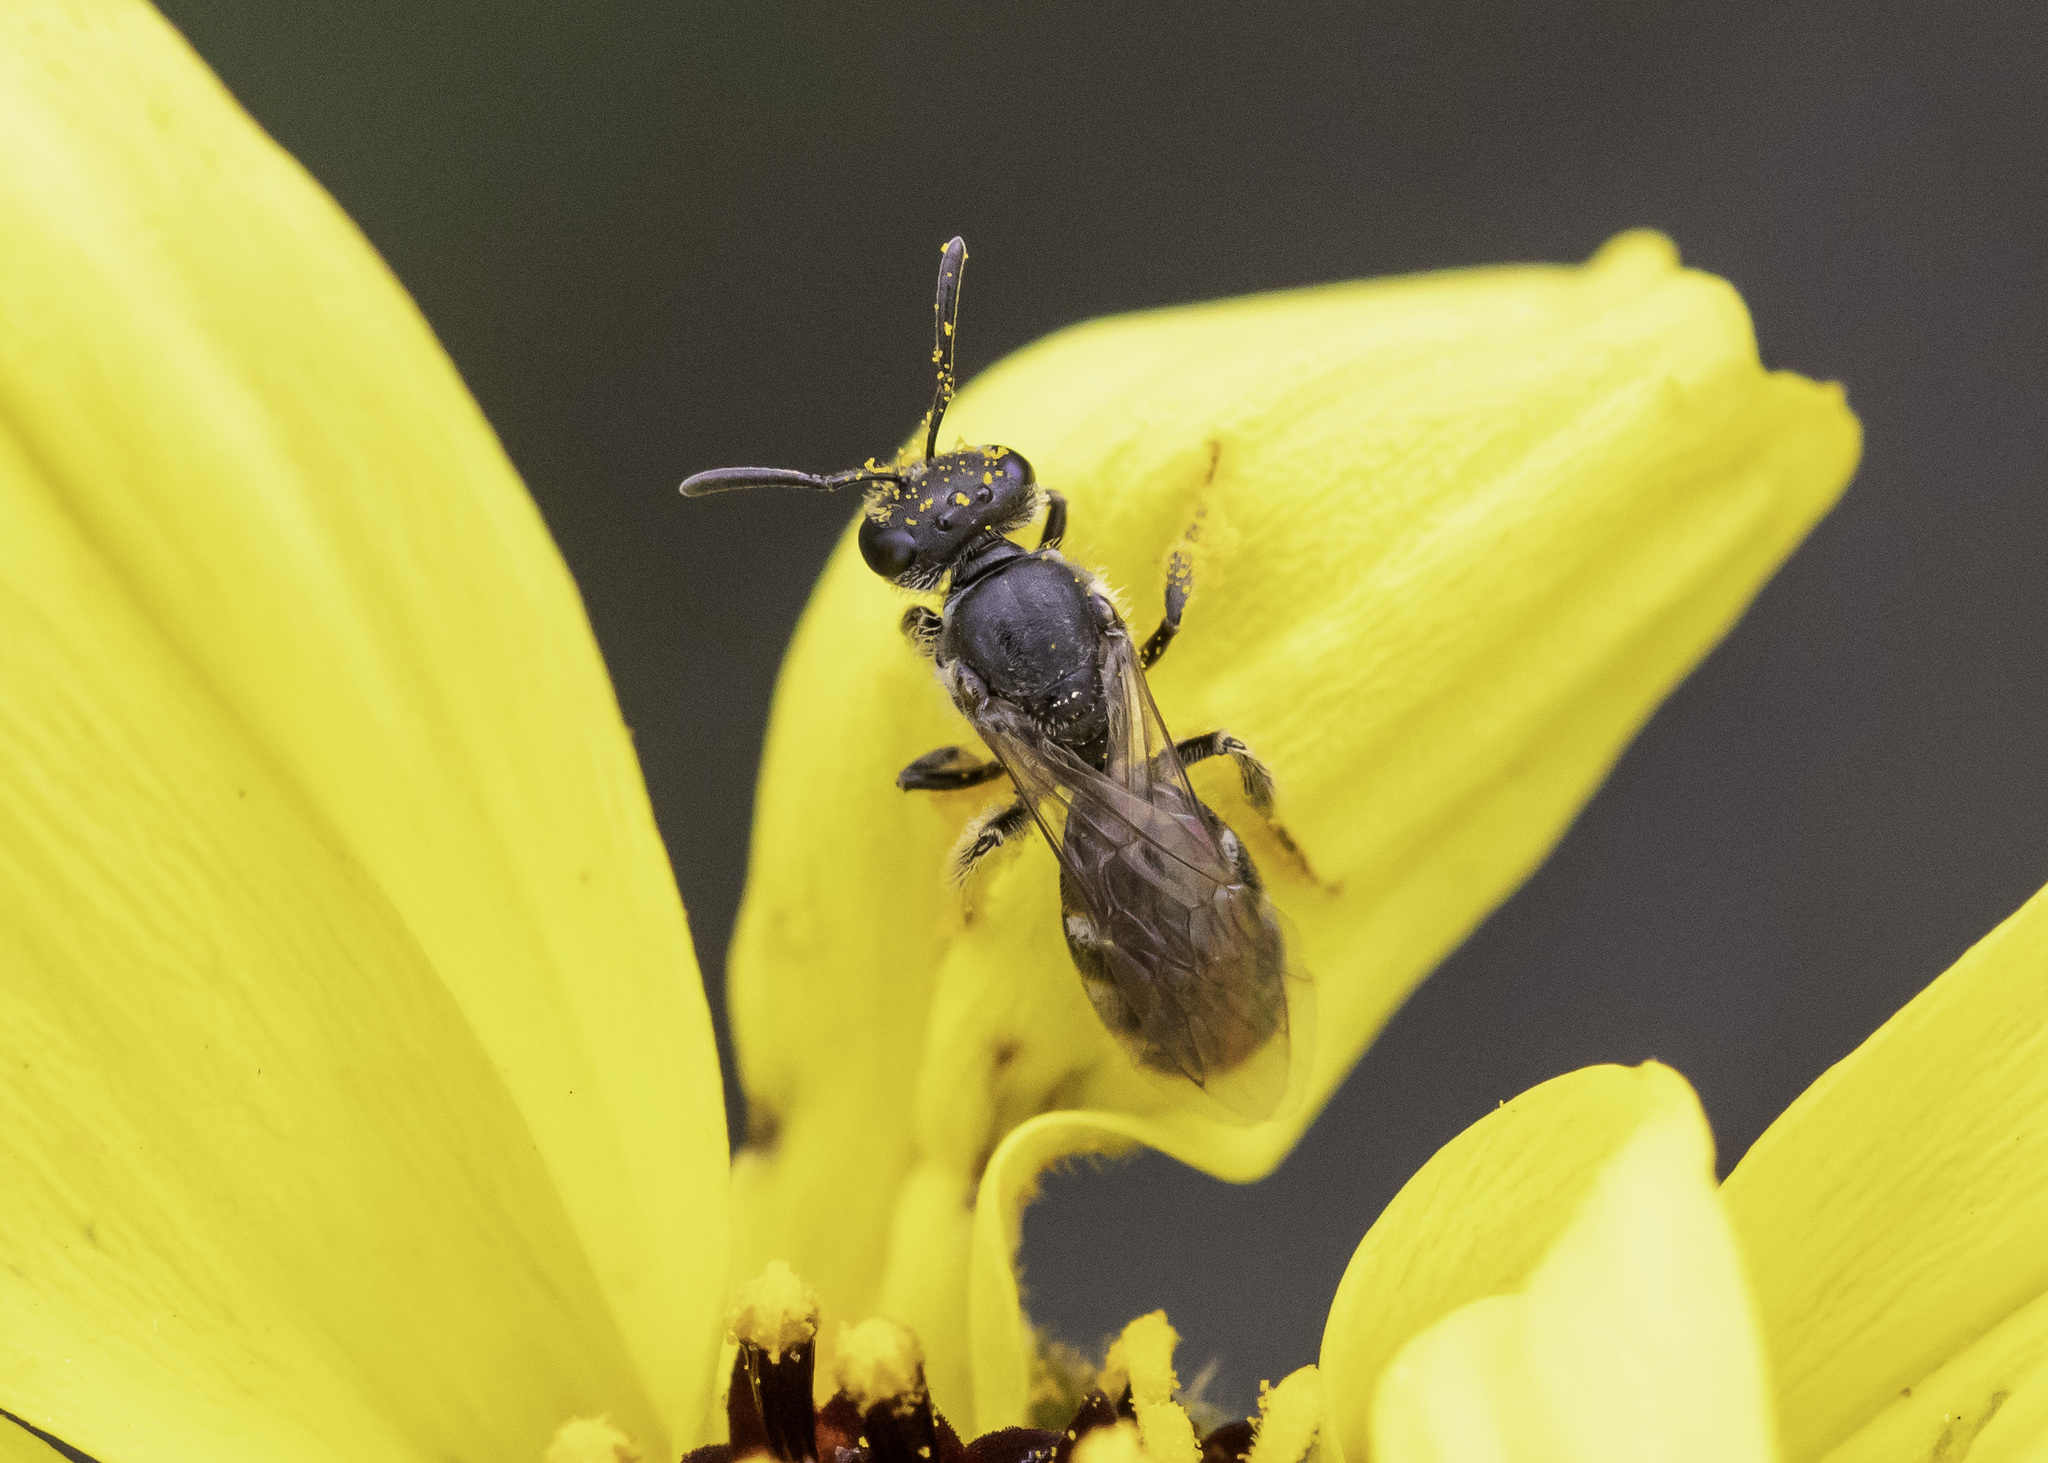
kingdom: Animalia
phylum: Arthropoda
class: Insecta
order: Hymenoptera
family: Halictidae
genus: Lasioglossum
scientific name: Lasioglossum
